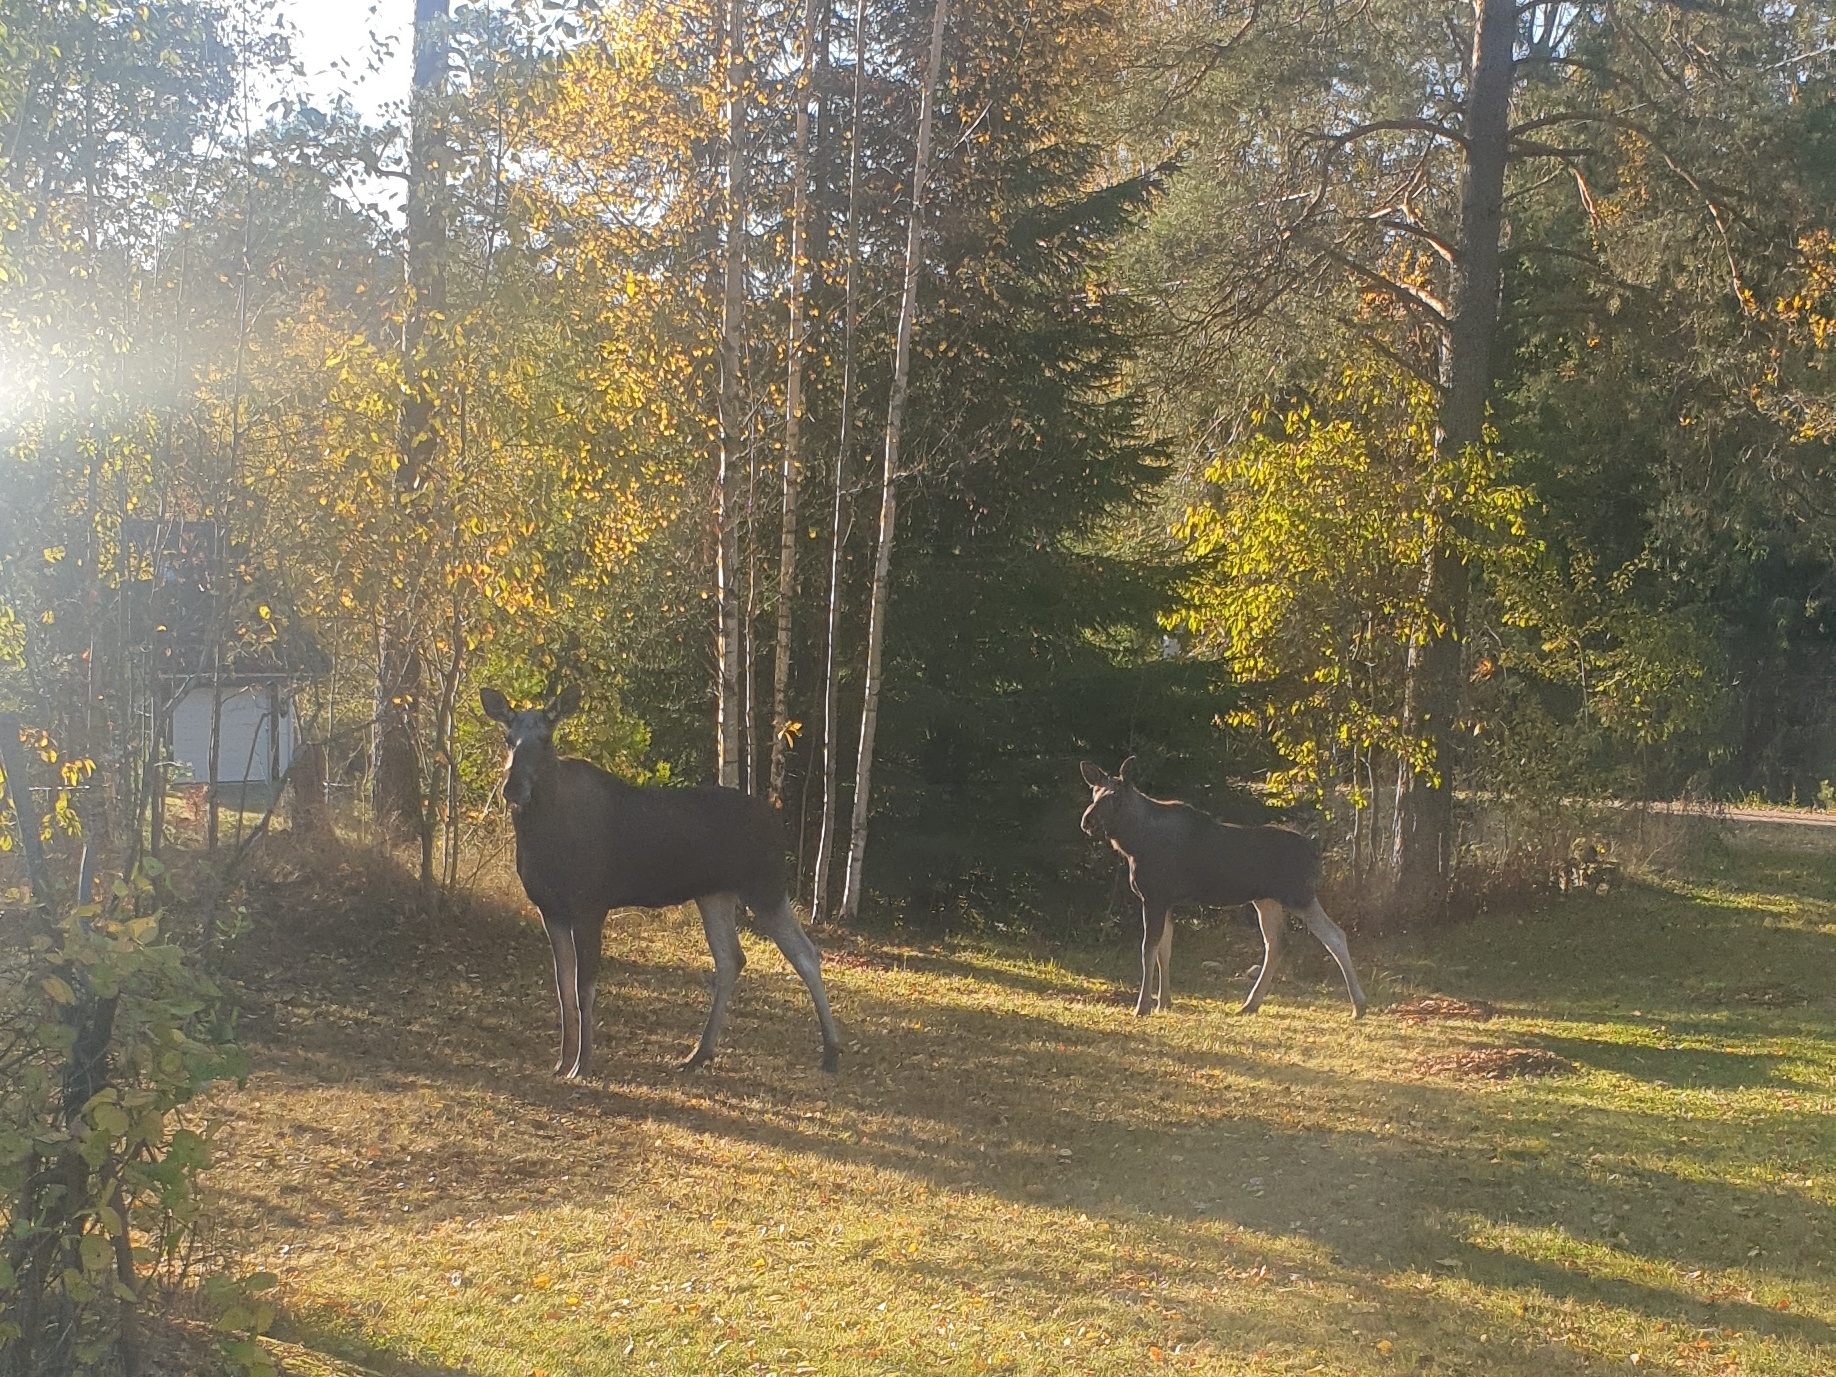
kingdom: Animalia
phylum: Chordata
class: Mammalia
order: Artiodactyla
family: Cervidae
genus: Alces
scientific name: Alces alces
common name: Moose
